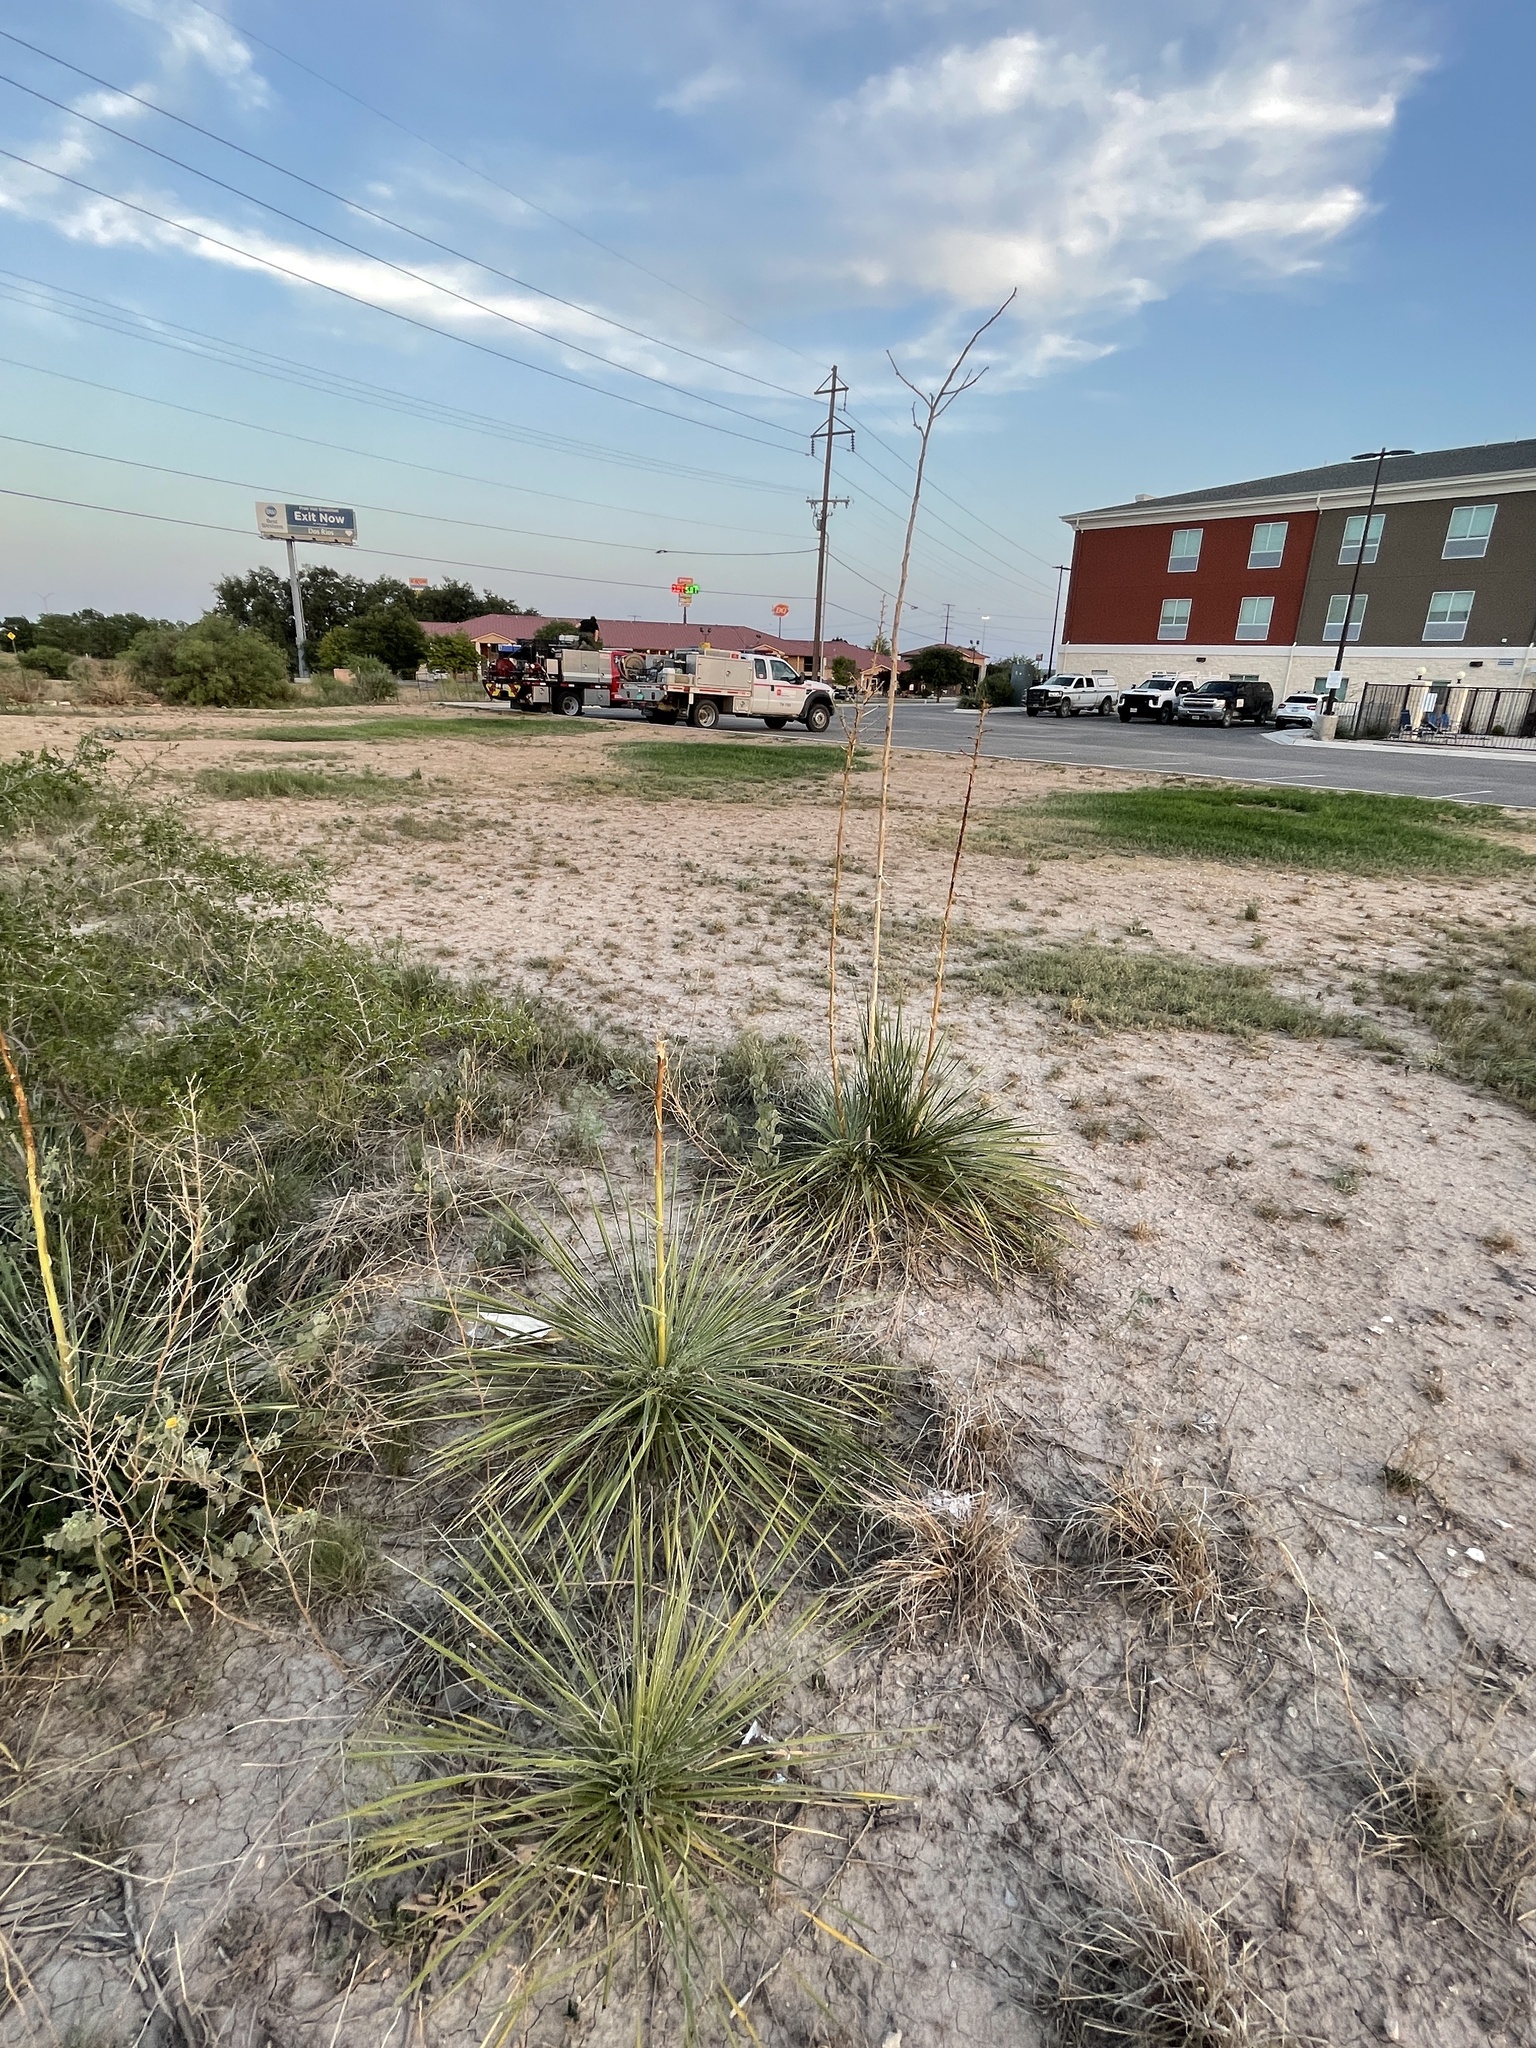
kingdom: Plantae
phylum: Tracheophyta
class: Liliopsida
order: Asparagales
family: Asparagaceae
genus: Yucca
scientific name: Yucca constricta
